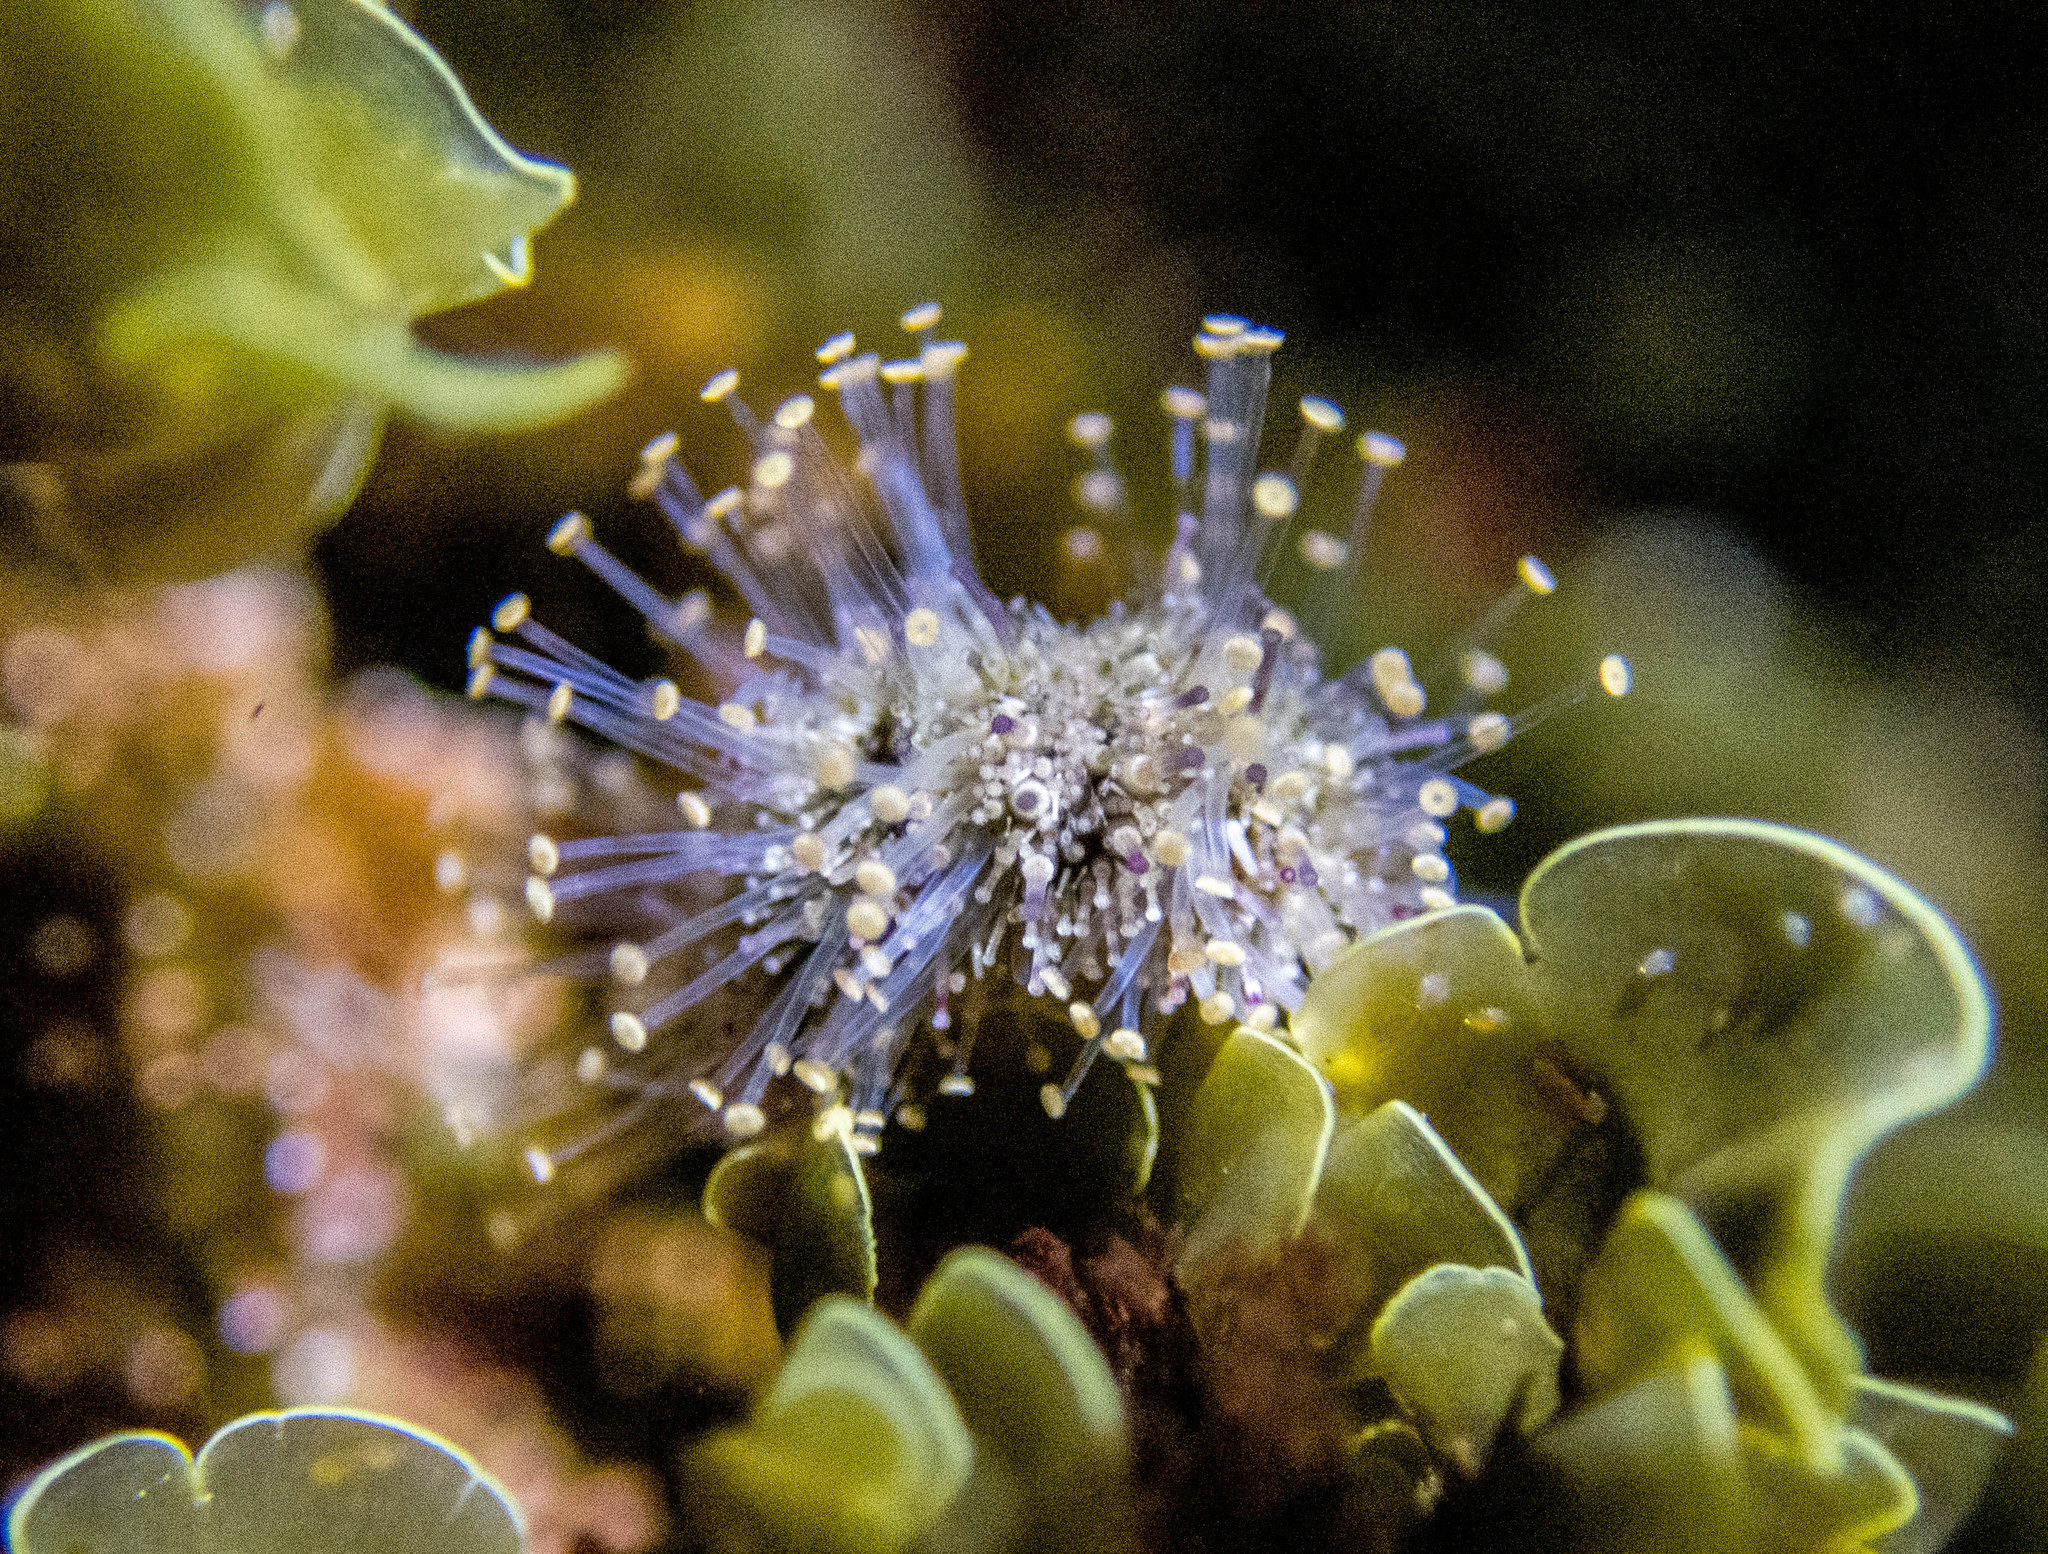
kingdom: Animalia
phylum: Echinodermata
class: Echinoidea
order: Camarodonta
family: Echinometridae
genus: Heliocidaris
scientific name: Heliocidaris erythrogramma
